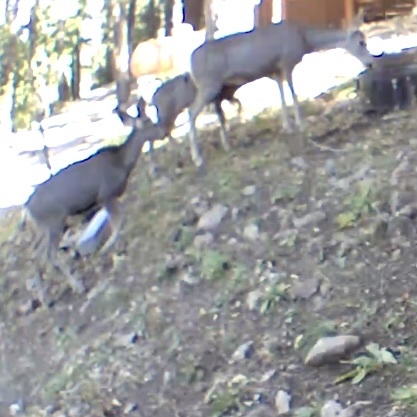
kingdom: Animalia
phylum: Chordata
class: Mammalia
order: Artiodactyla
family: Cervidae
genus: Odocoileus
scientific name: Odocoileus hemionus
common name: Mule deer
